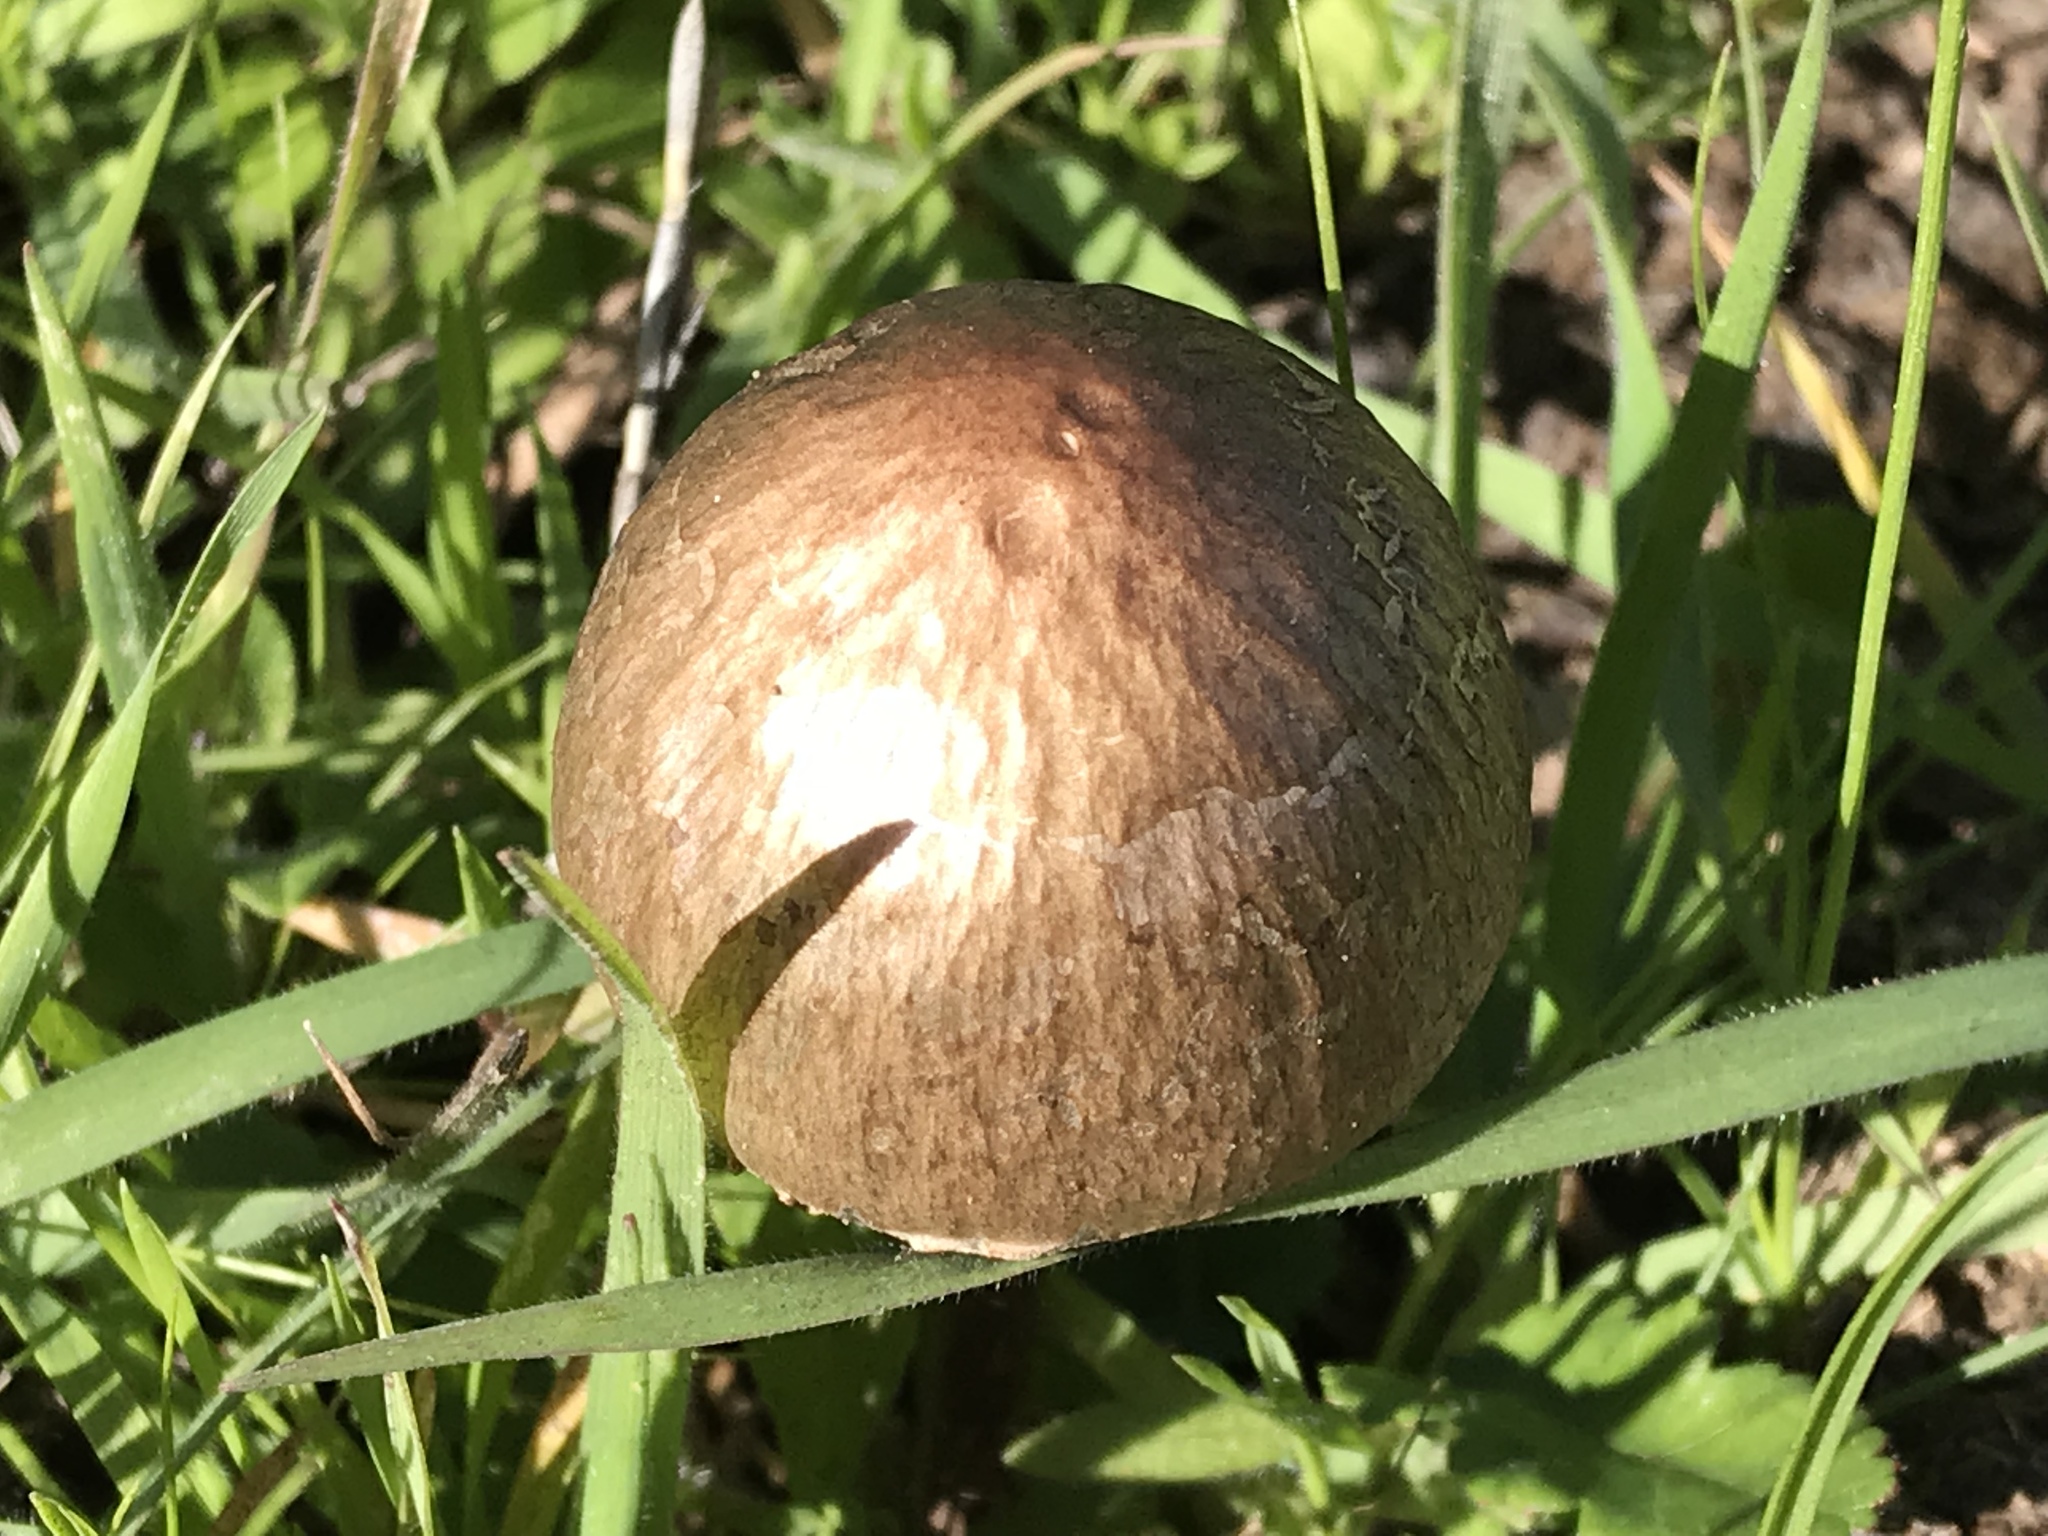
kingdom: Fungi
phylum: Basidiomycota
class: Agaricomycetes
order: Agaricales
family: Bolbitiaceae
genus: Panaeolus
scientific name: Panaeolus papilionaceus
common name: Petticoat mottlegill
